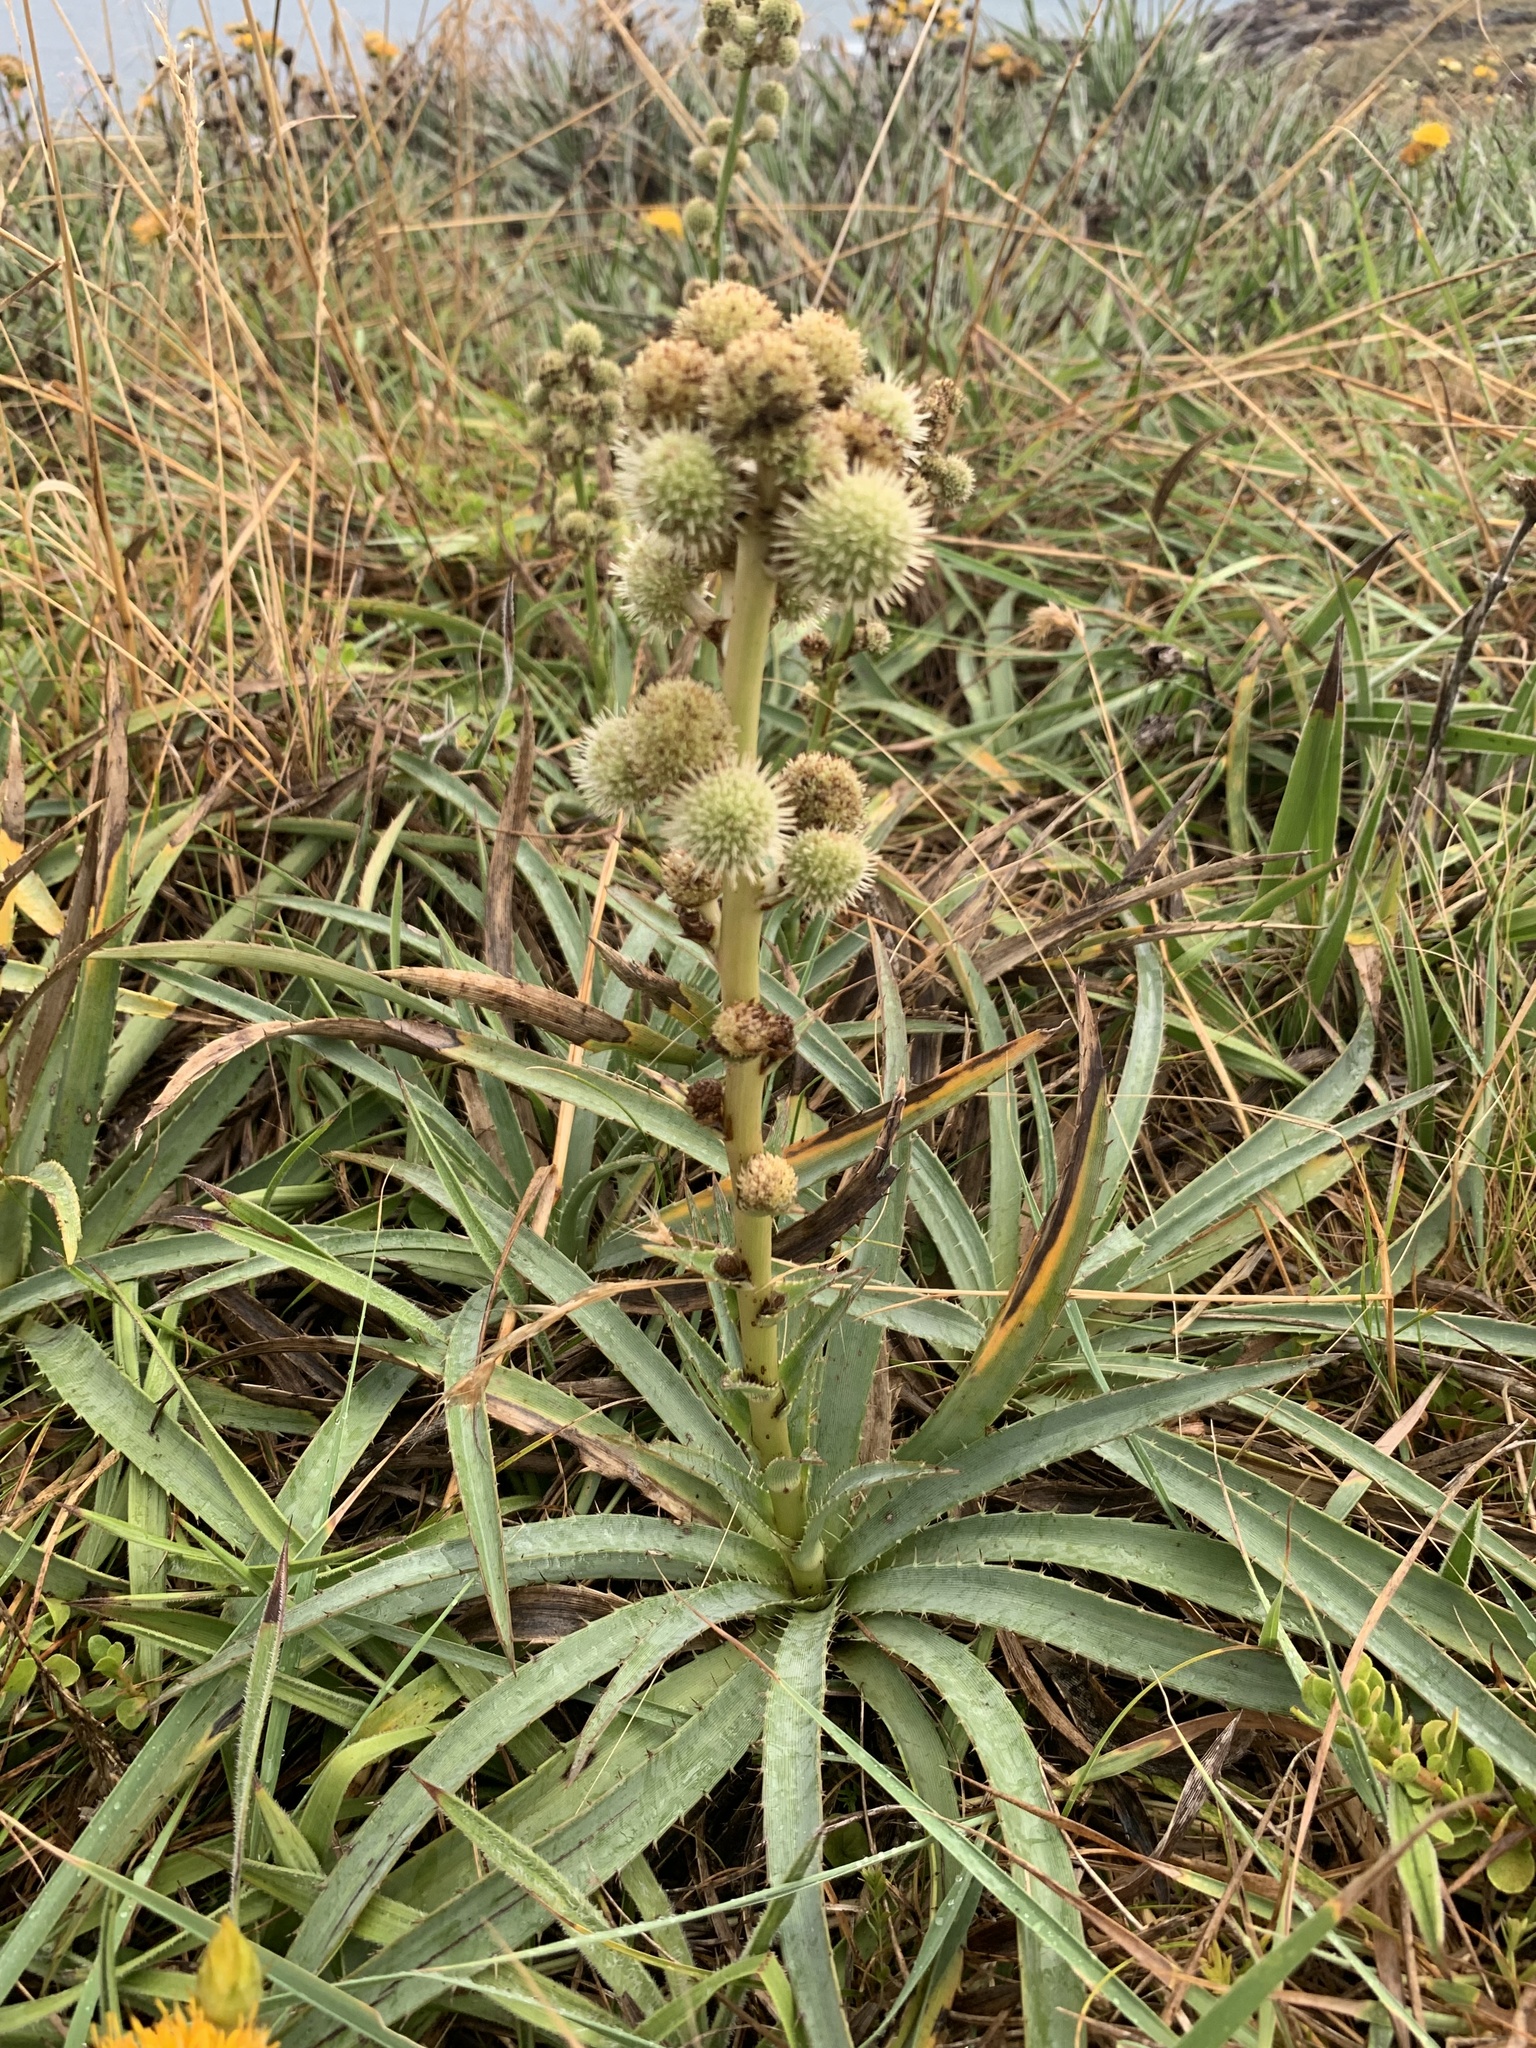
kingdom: Plantae
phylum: Tracheophyta
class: Magnoliopsida
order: Apiales
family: Apiaceae
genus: Eryngium
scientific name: Eryngium megapotamicum
